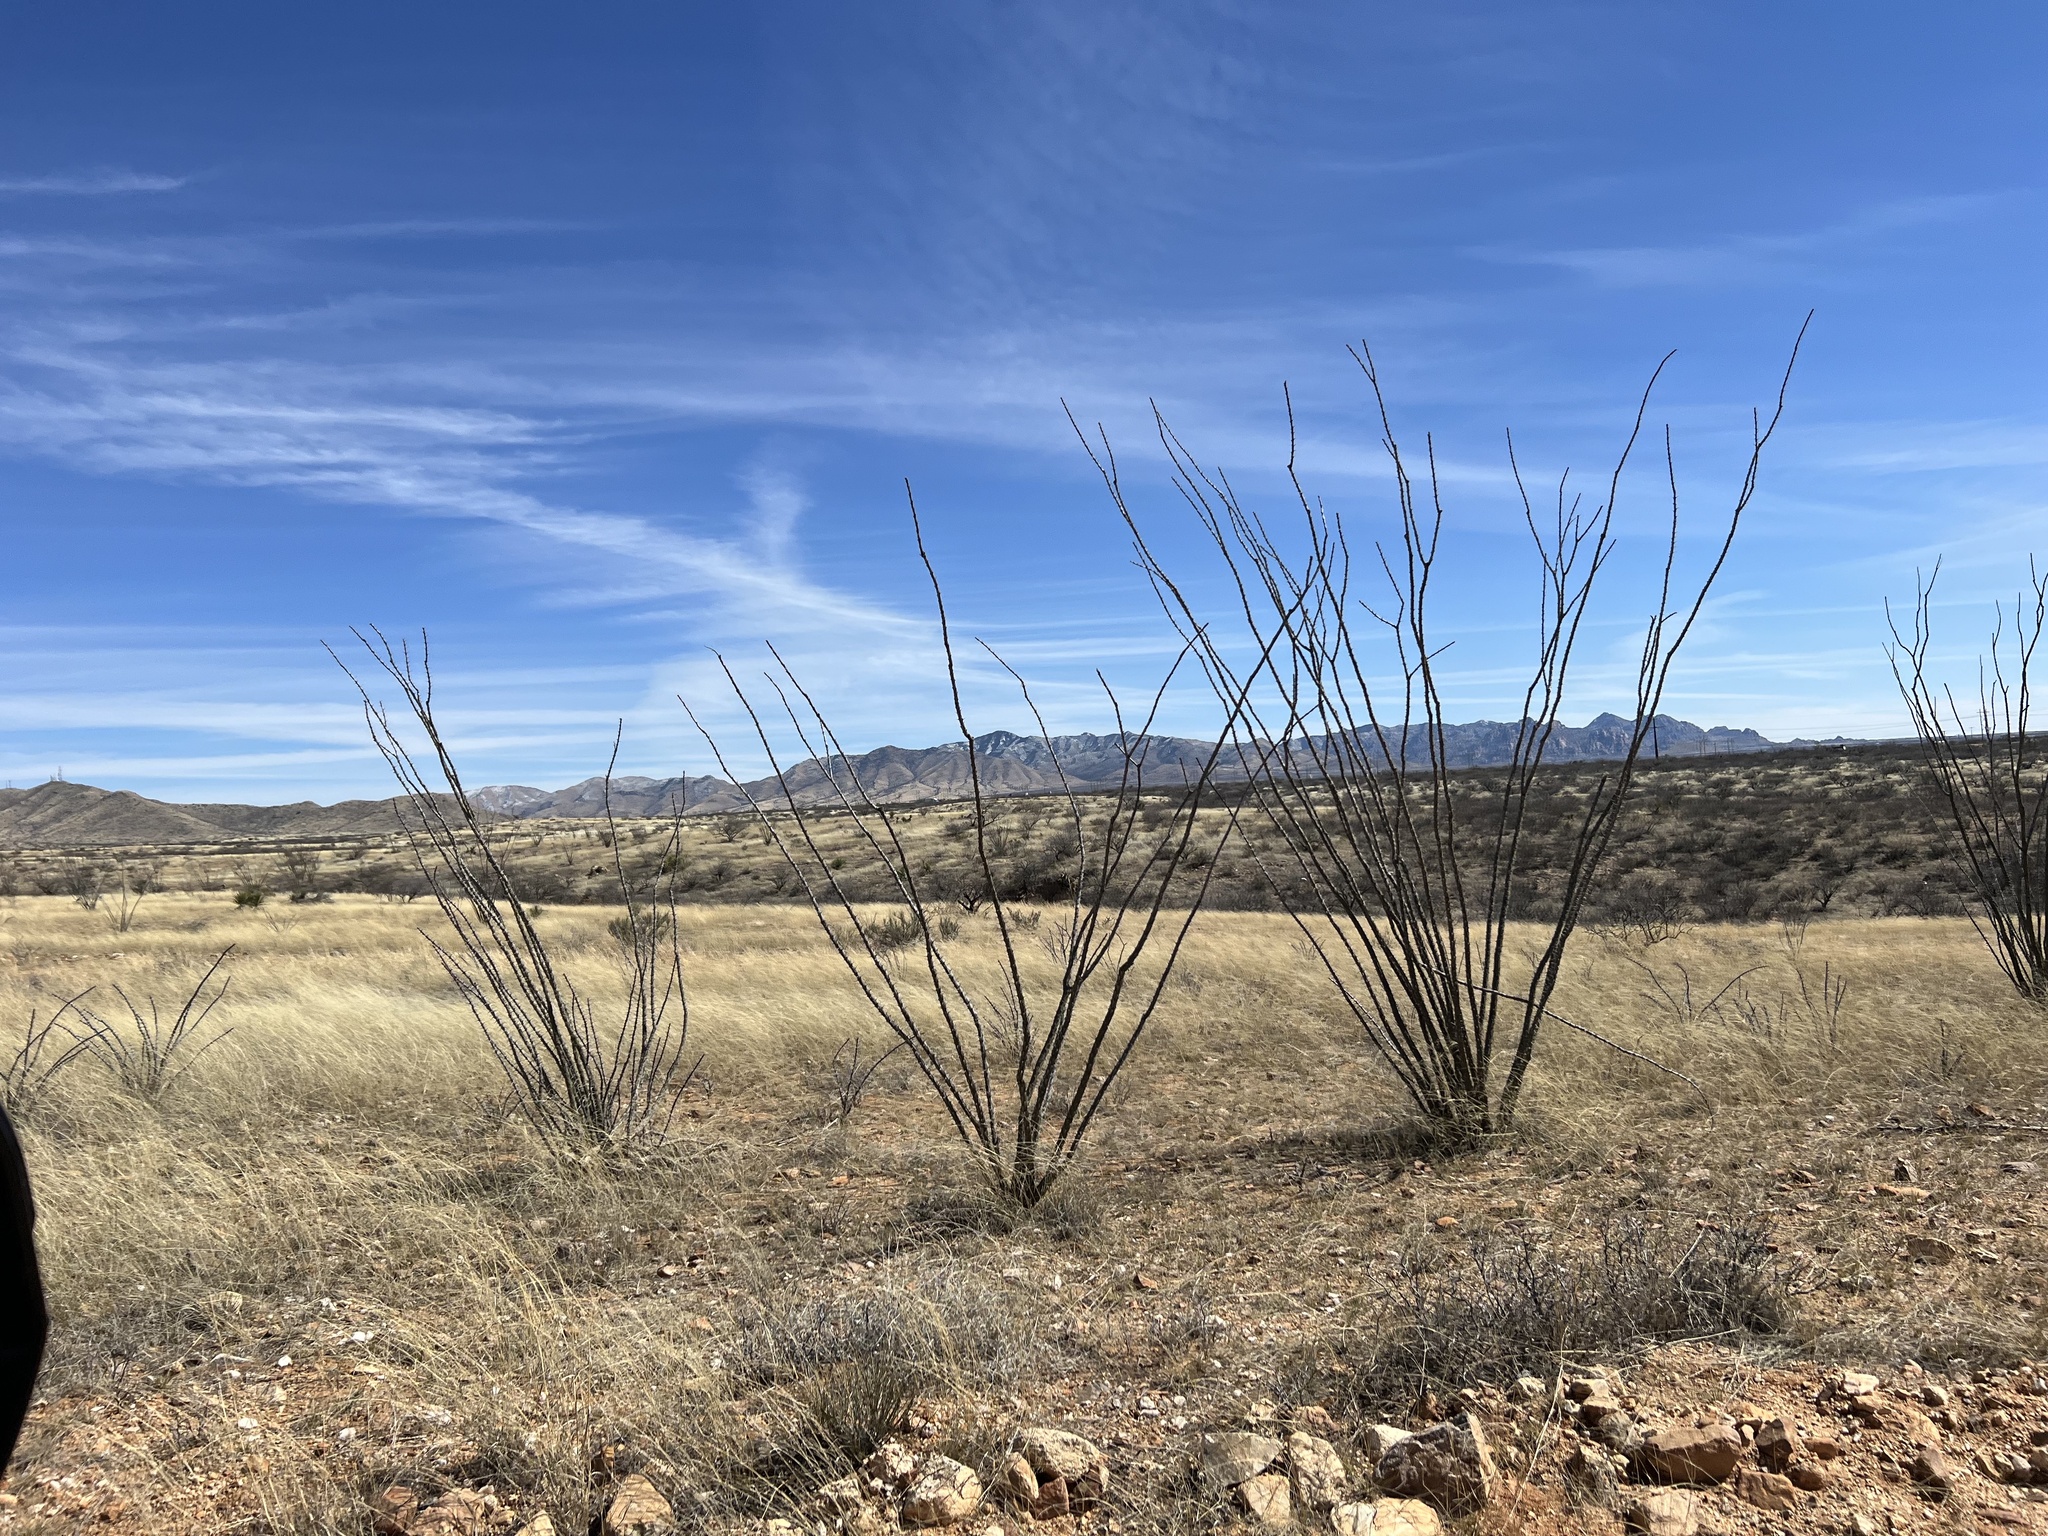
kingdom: Plantae
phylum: Tracheophyta
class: Magnoliopsida
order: Ericales
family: Fouquieriaceae
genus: Fouquieria
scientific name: Fouquieria splendens
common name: Vine-cactus
